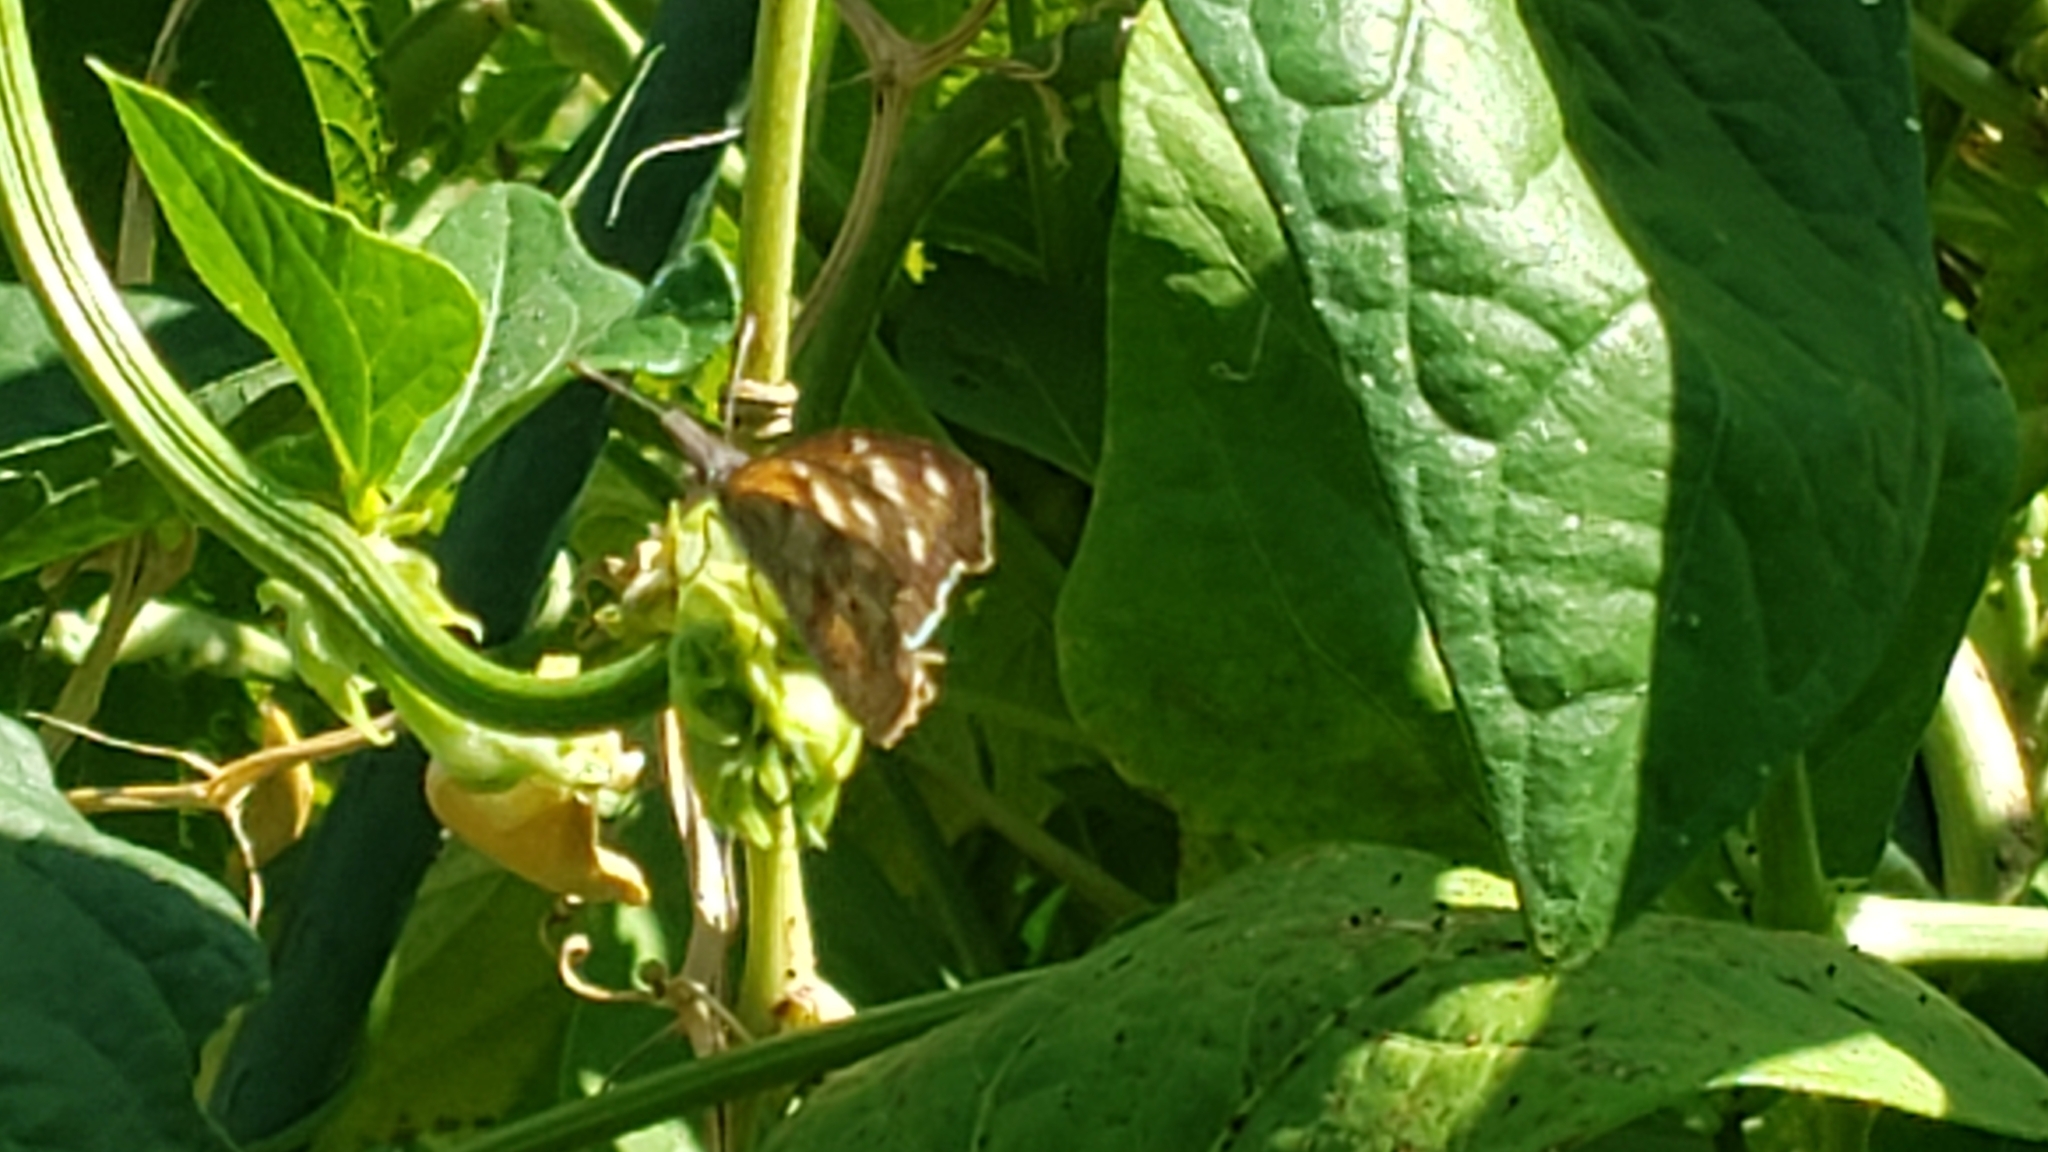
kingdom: Animalia
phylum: Arthropoda
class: Insecta
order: Lepidoptera
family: Nymphalidae
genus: Libytheana
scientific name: Libytheana carinenta
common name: American snout
